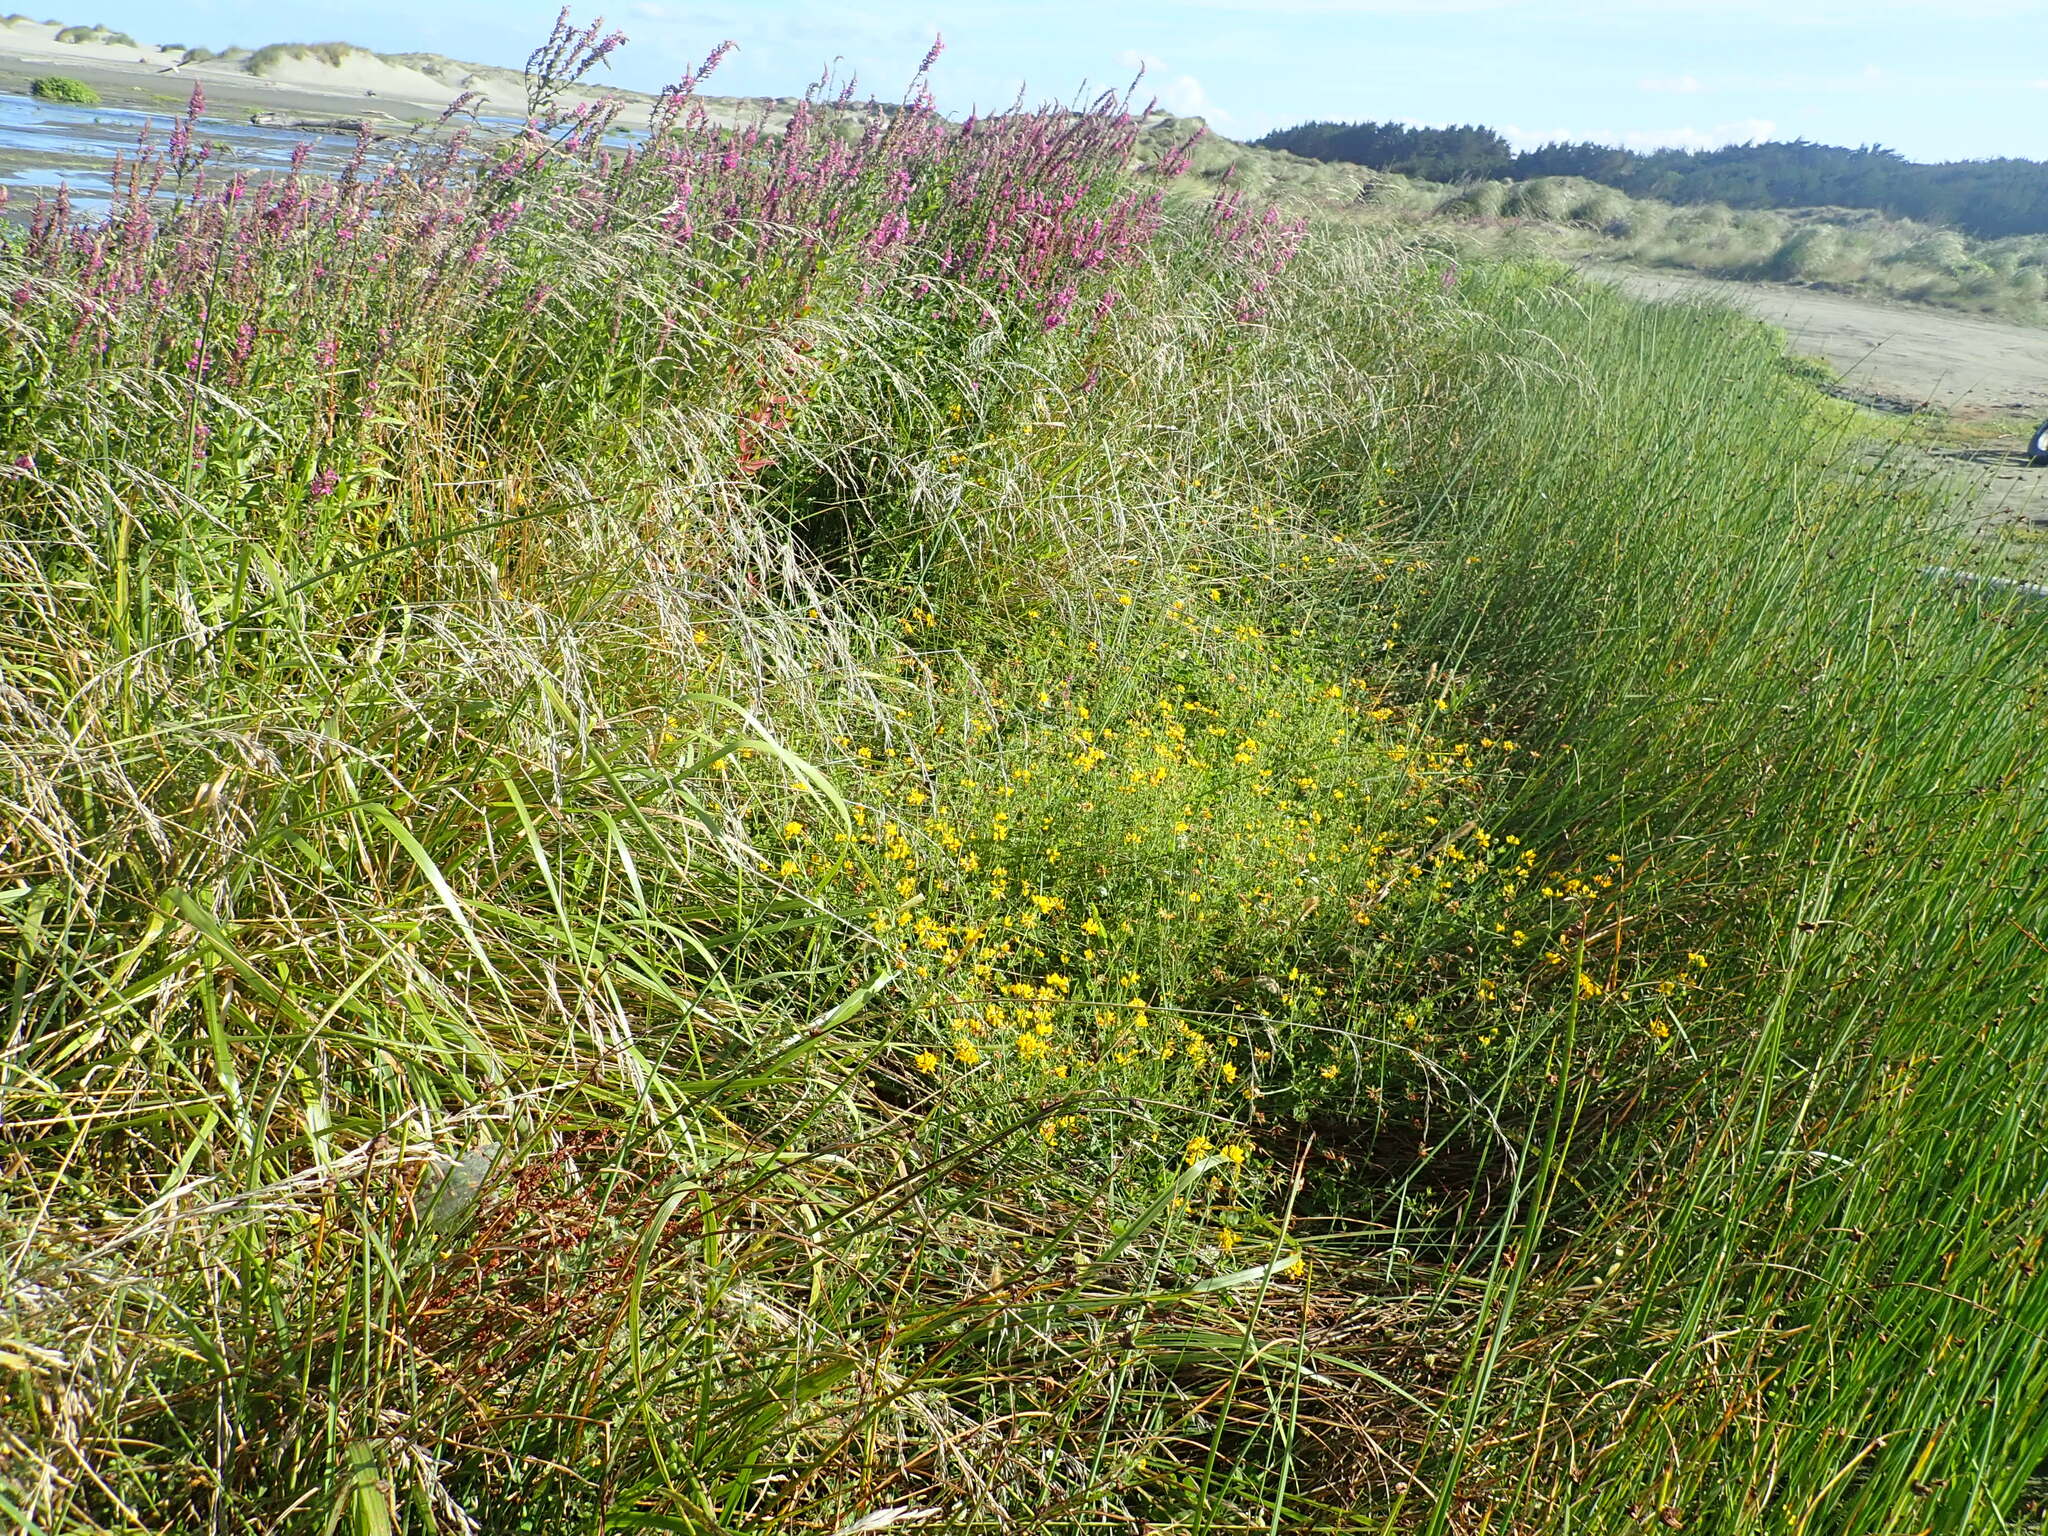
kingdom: Plantae
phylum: Tracheophyta
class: Magnoliopsida
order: Fabales
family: Fabaceae
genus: Lotus
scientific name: Lotus pedunculatus
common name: Greater birdsfoot-trefoil
